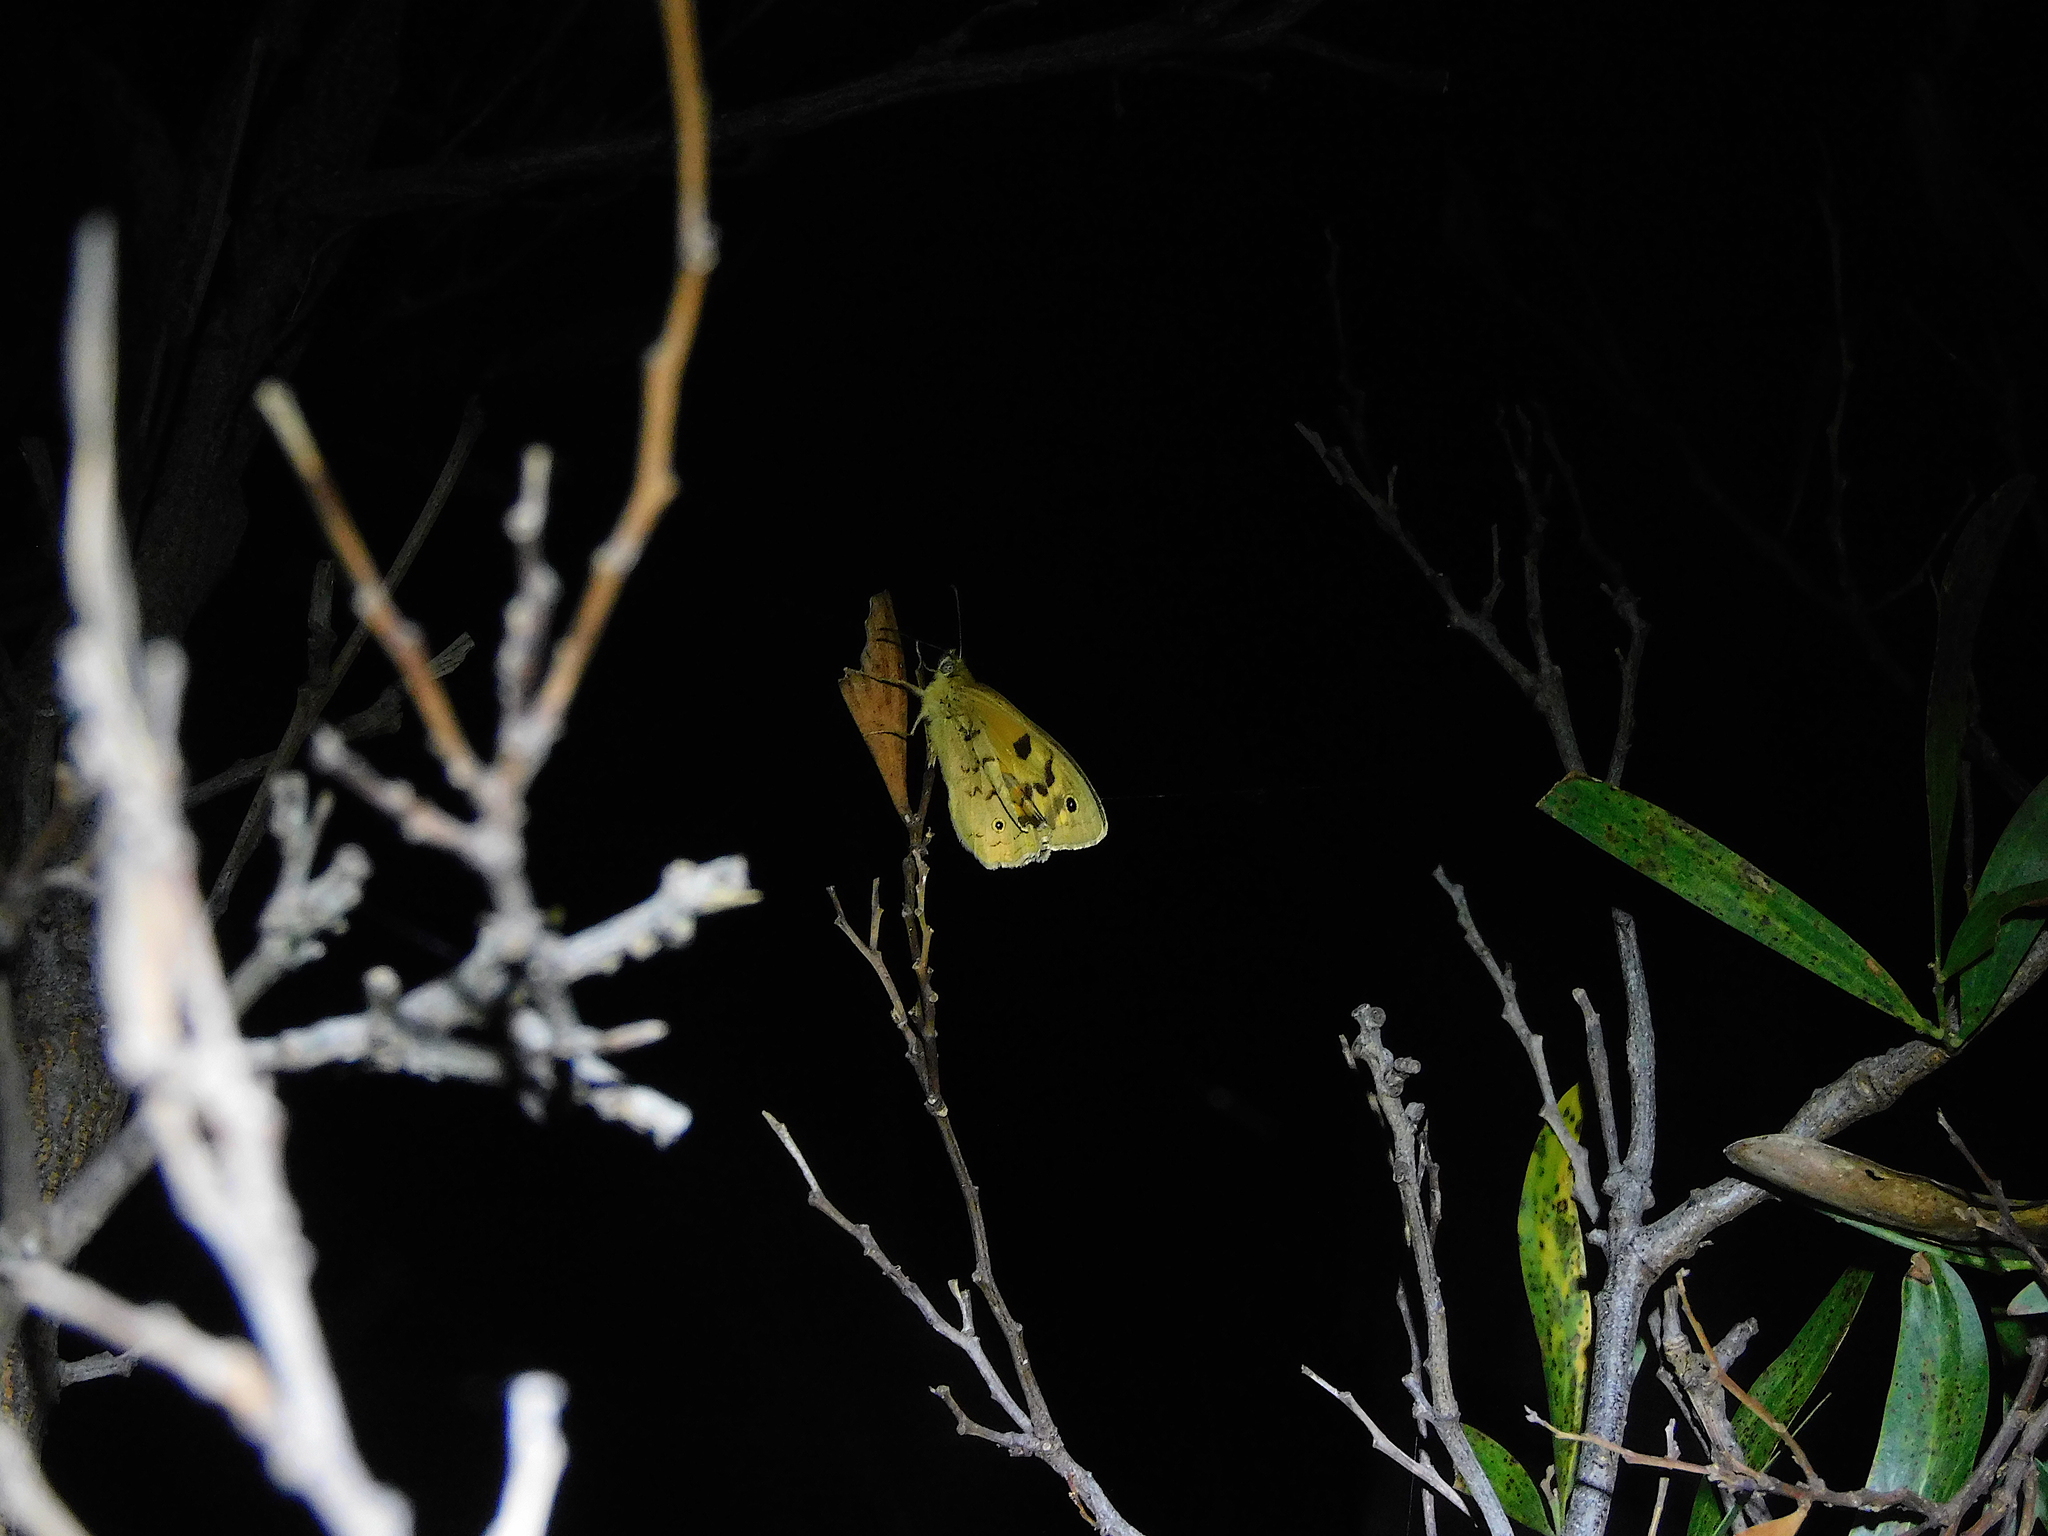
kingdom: Animalia
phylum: Arthropoda
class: Insecta
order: Lepidoptera
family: Nymphalidae
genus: Heteronympha
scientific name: Heteronympha penelope
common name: Shouldered brown
